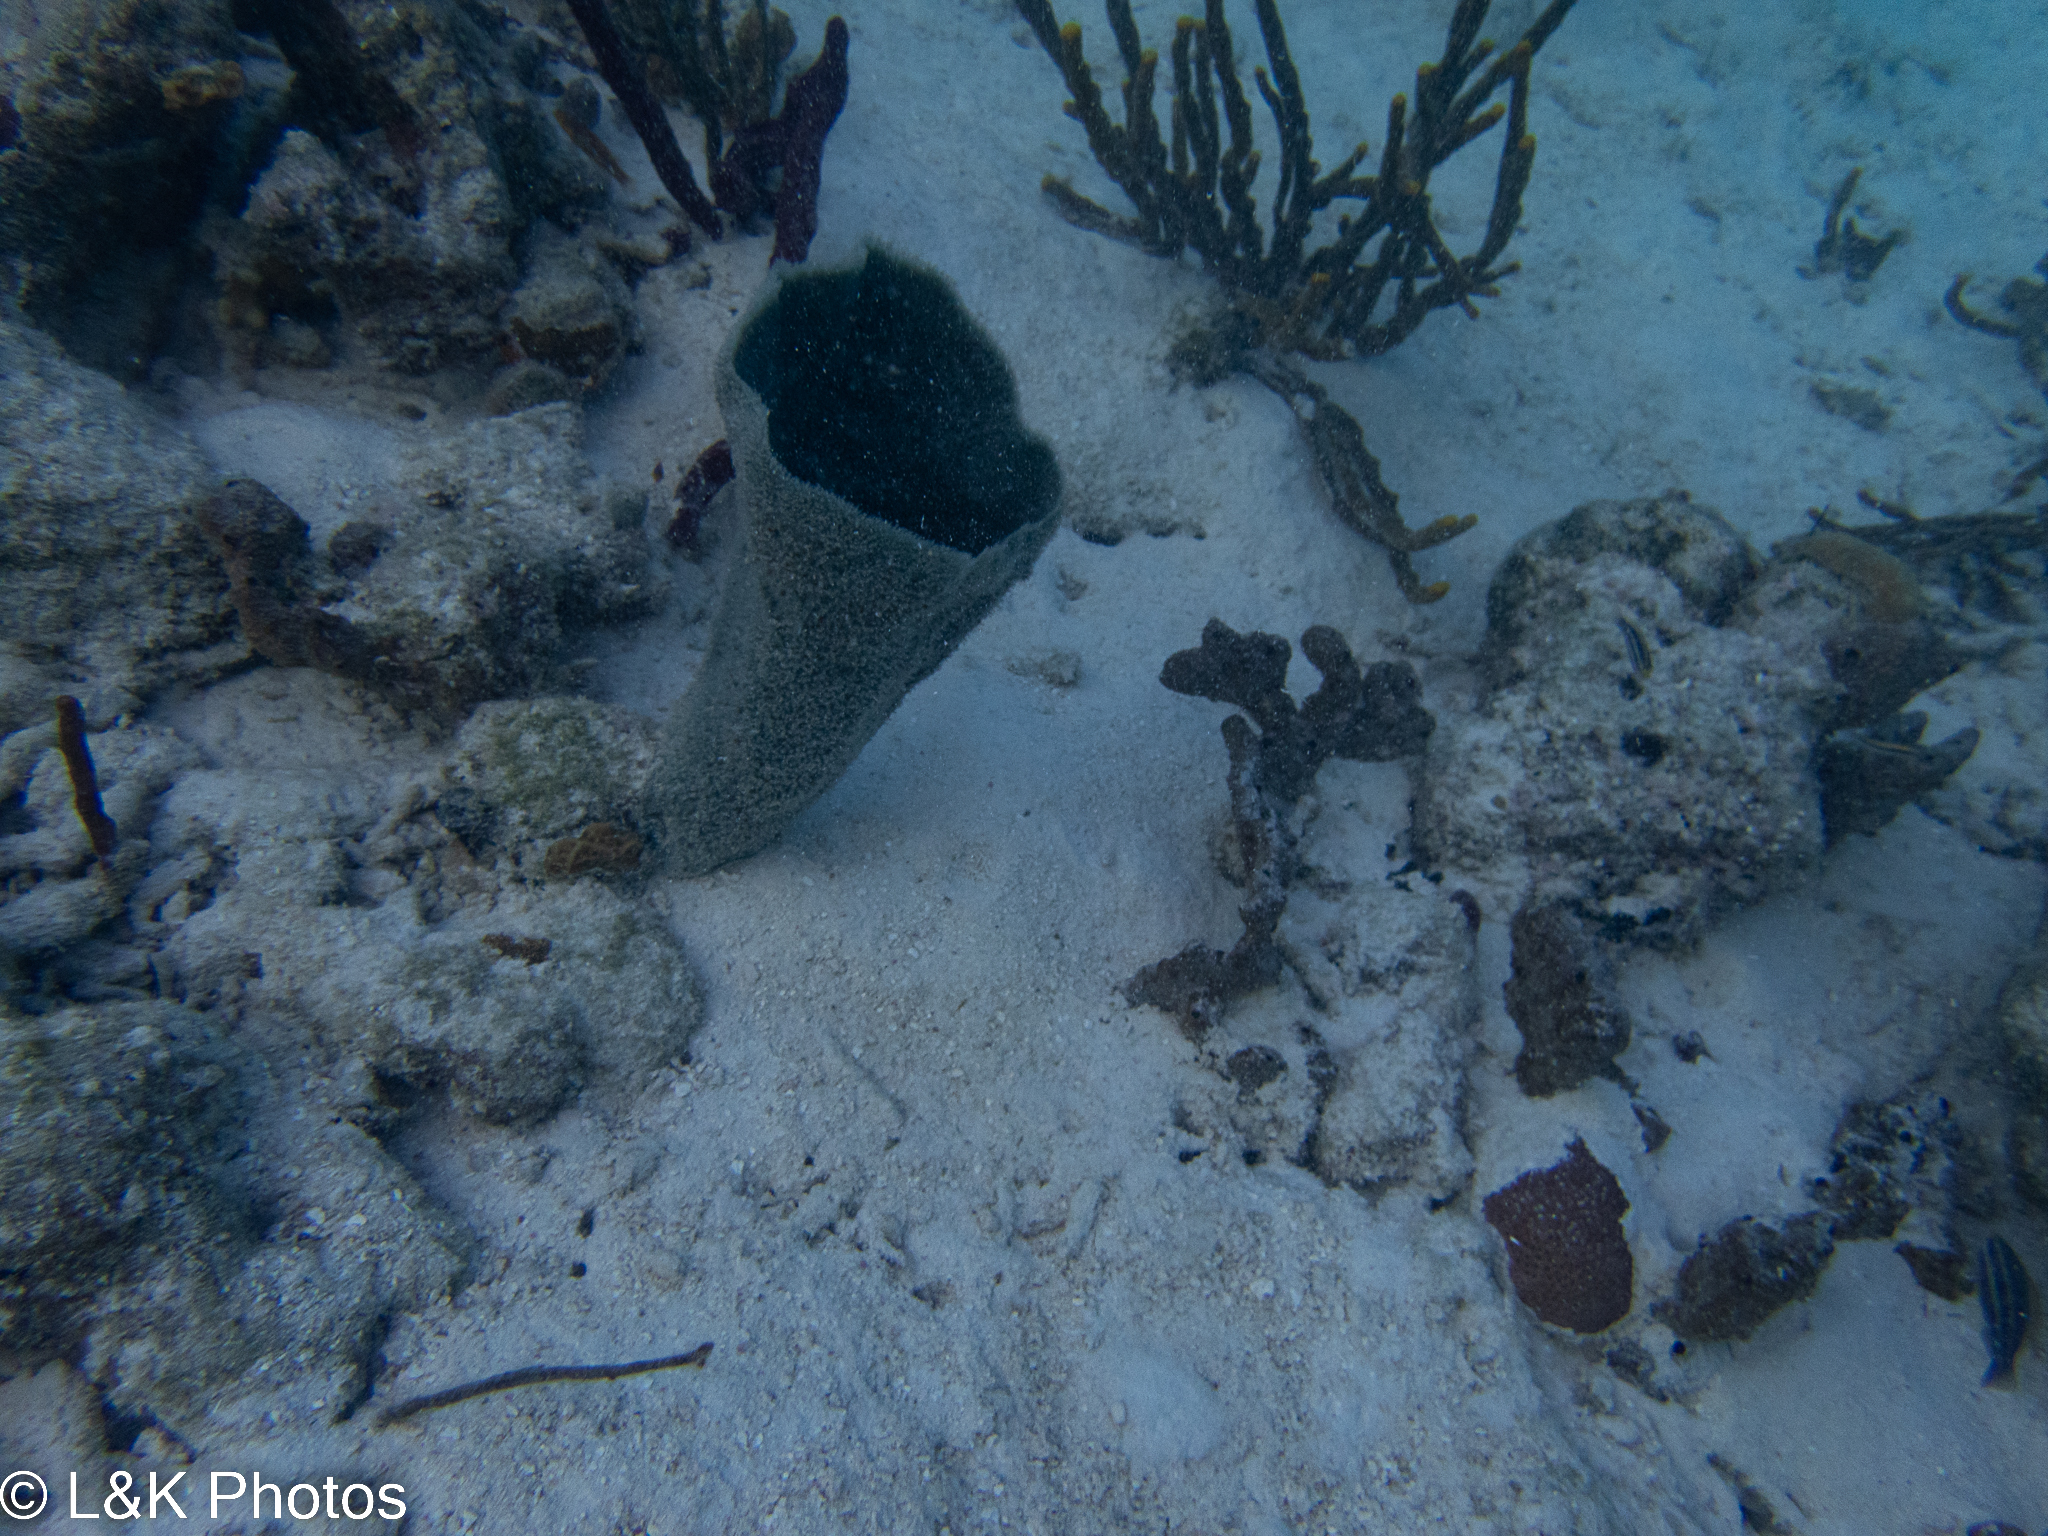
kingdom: Animalia
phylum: Porifera
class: Demospongiae
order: Haplosclerida
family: Niphatidae
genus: Niphates
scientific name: Niphates digitalis
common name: Pink vase sponge
